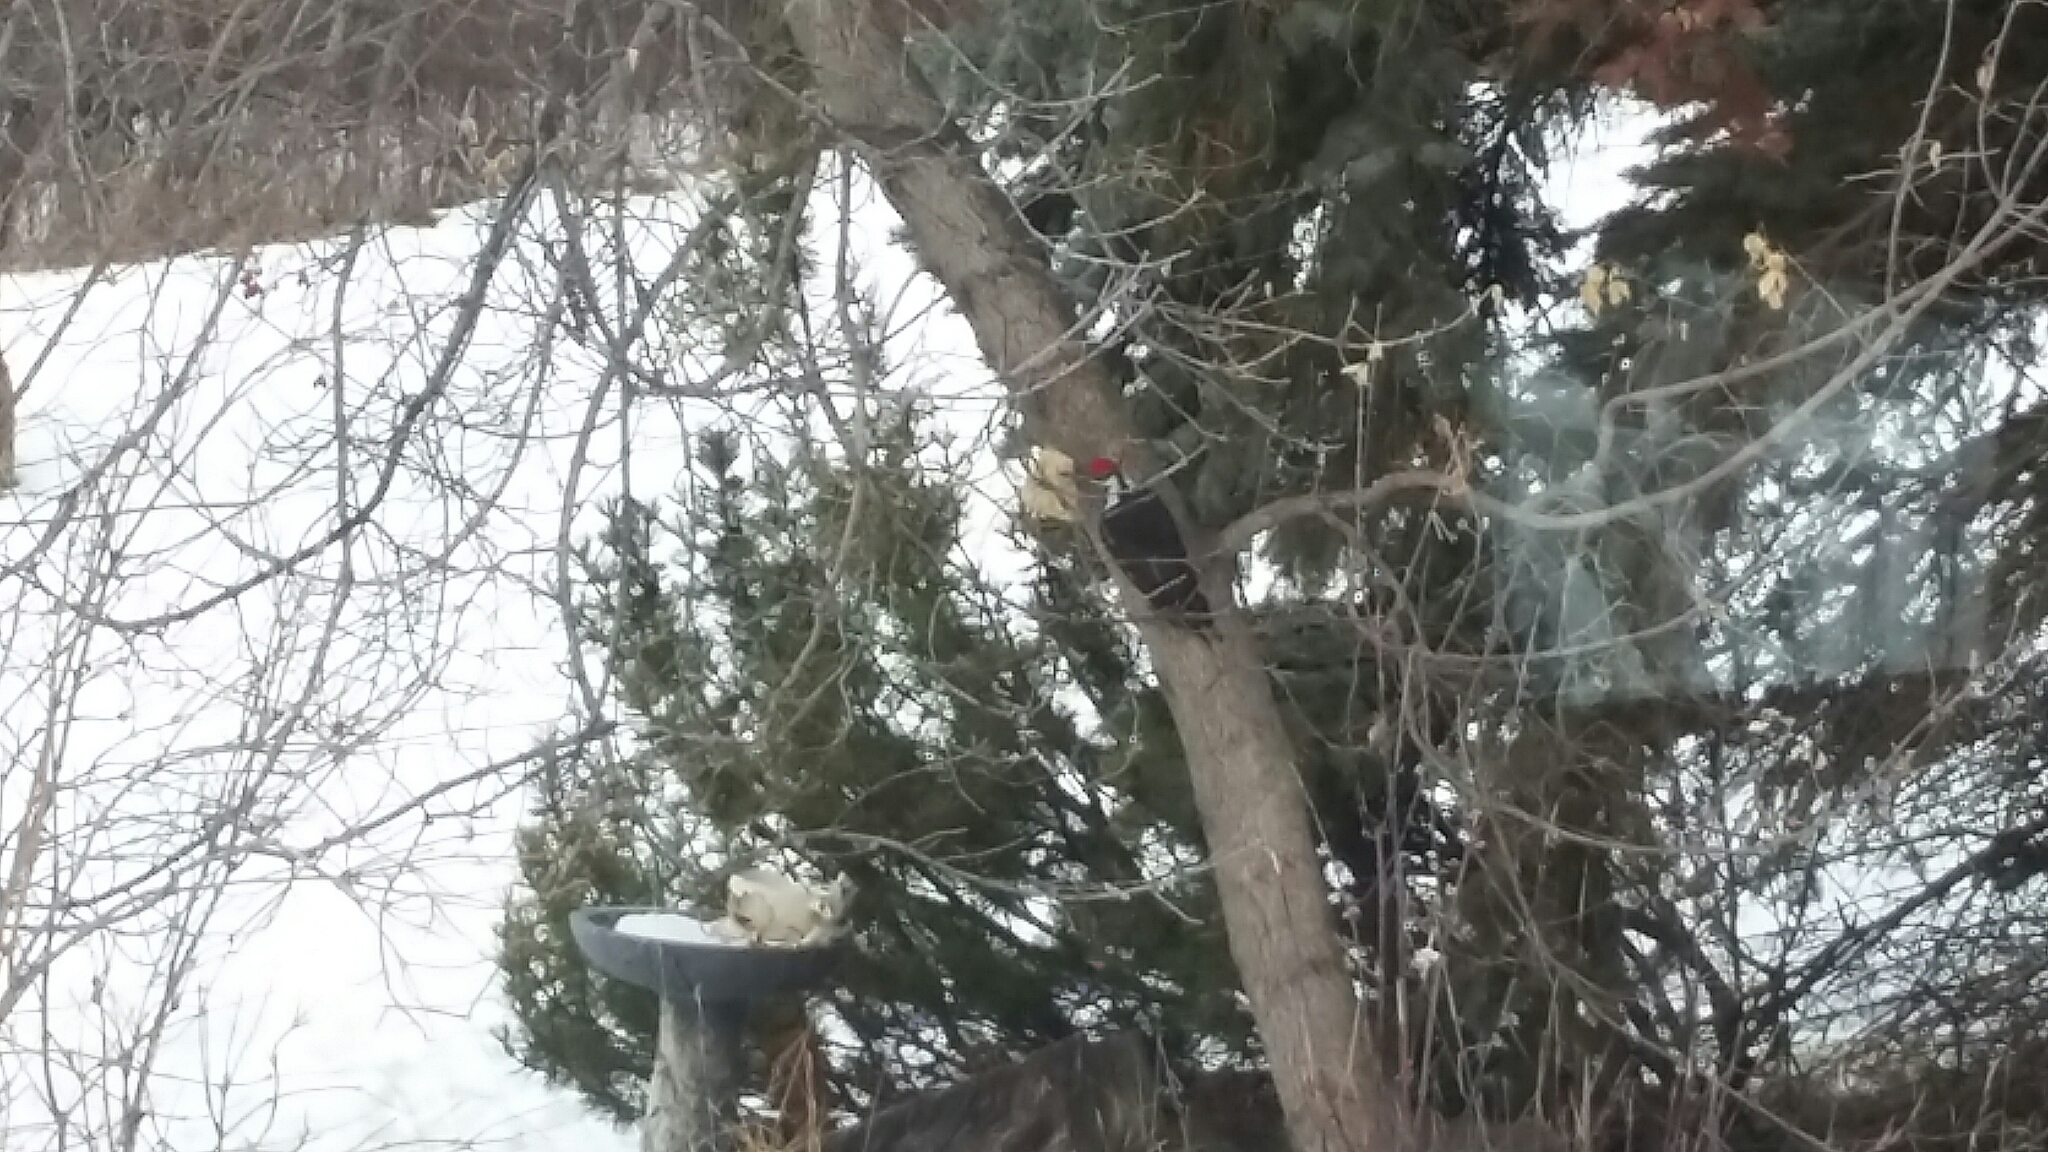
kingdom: Animalia
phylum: Chordata
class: Aves
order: Piciformes
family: Picidae
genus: Dryocopus
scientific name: Dryocopus pileatus
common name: Pileated woodpecker
